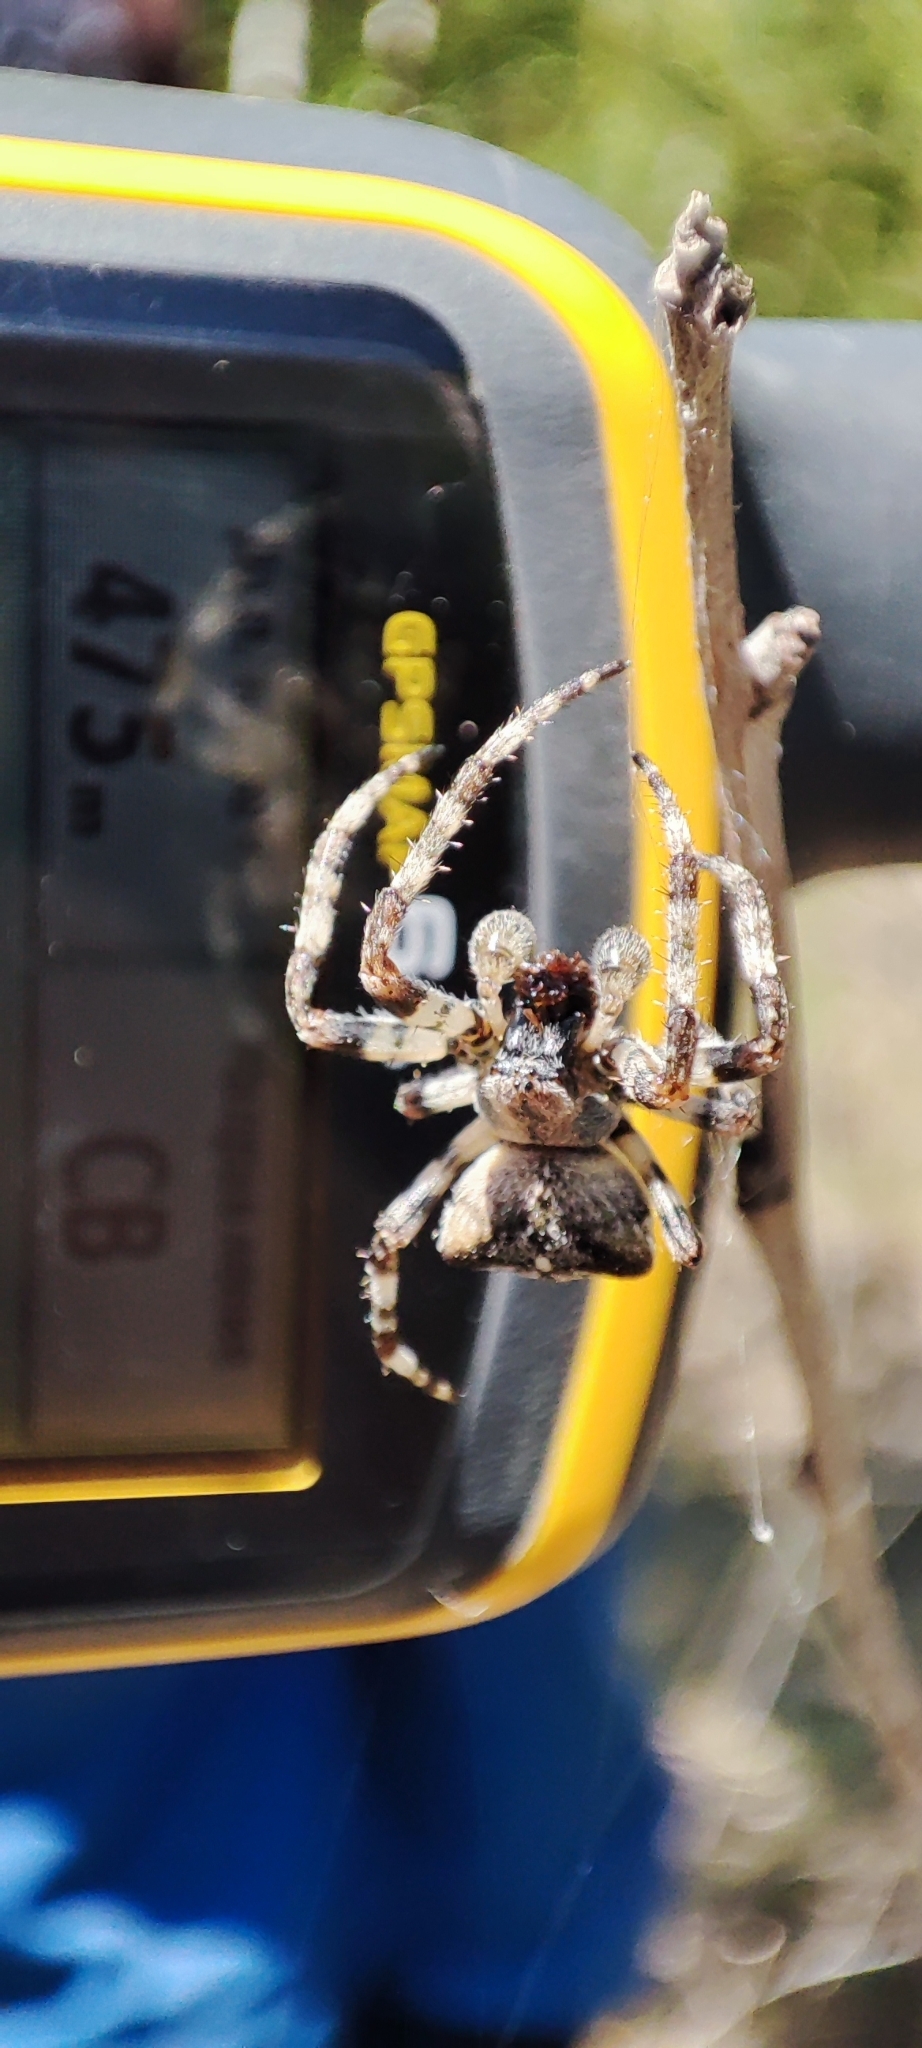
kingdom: Animalia
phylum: Arthropoda
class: Arachnida
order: Araneae
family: Araneidae
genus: Araneus
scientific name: Araneus angulatus
